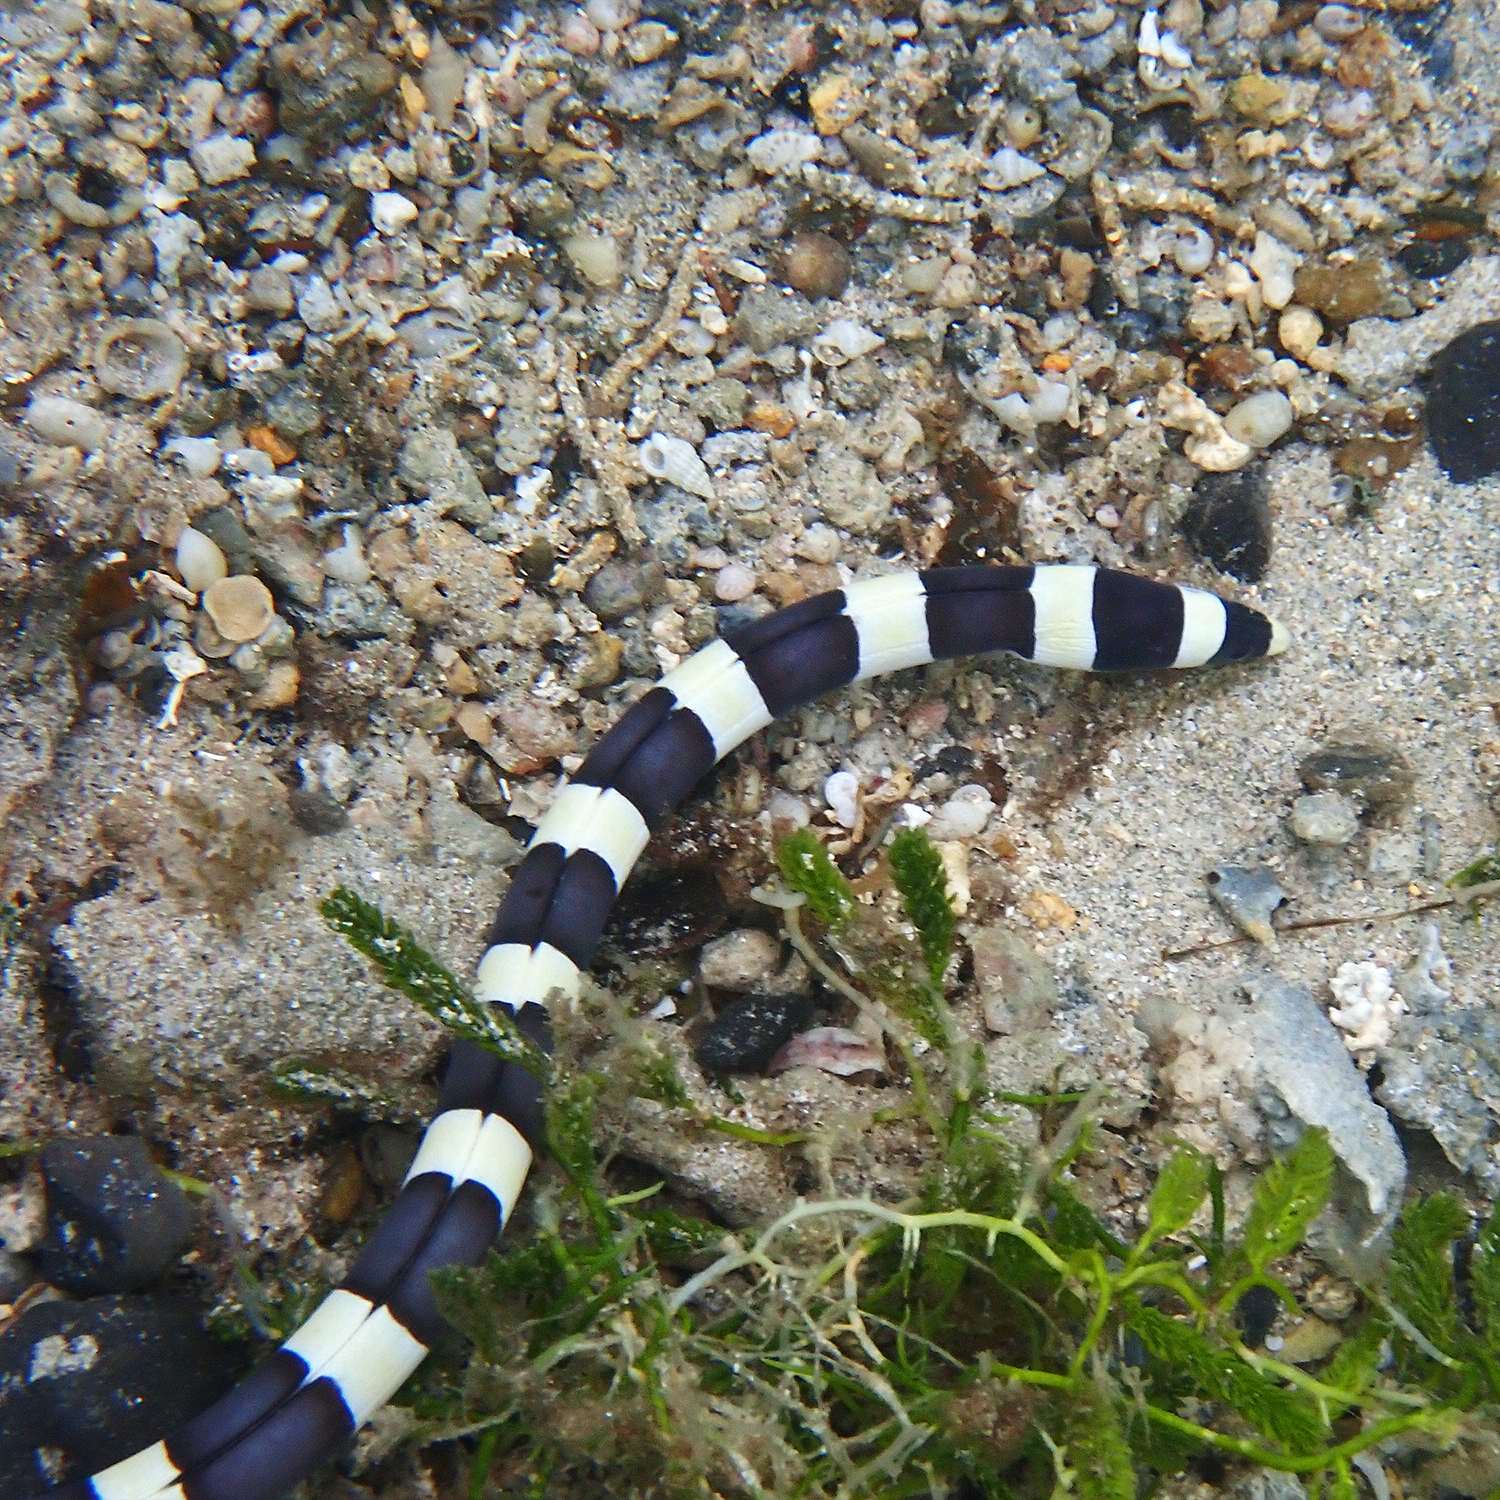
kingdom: Animalia
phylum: Chordata
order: Anguilliformes
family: Ophichthidae
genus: Leiuranus
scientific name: Leiuranus semicinctus
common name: Saddled snake eel
